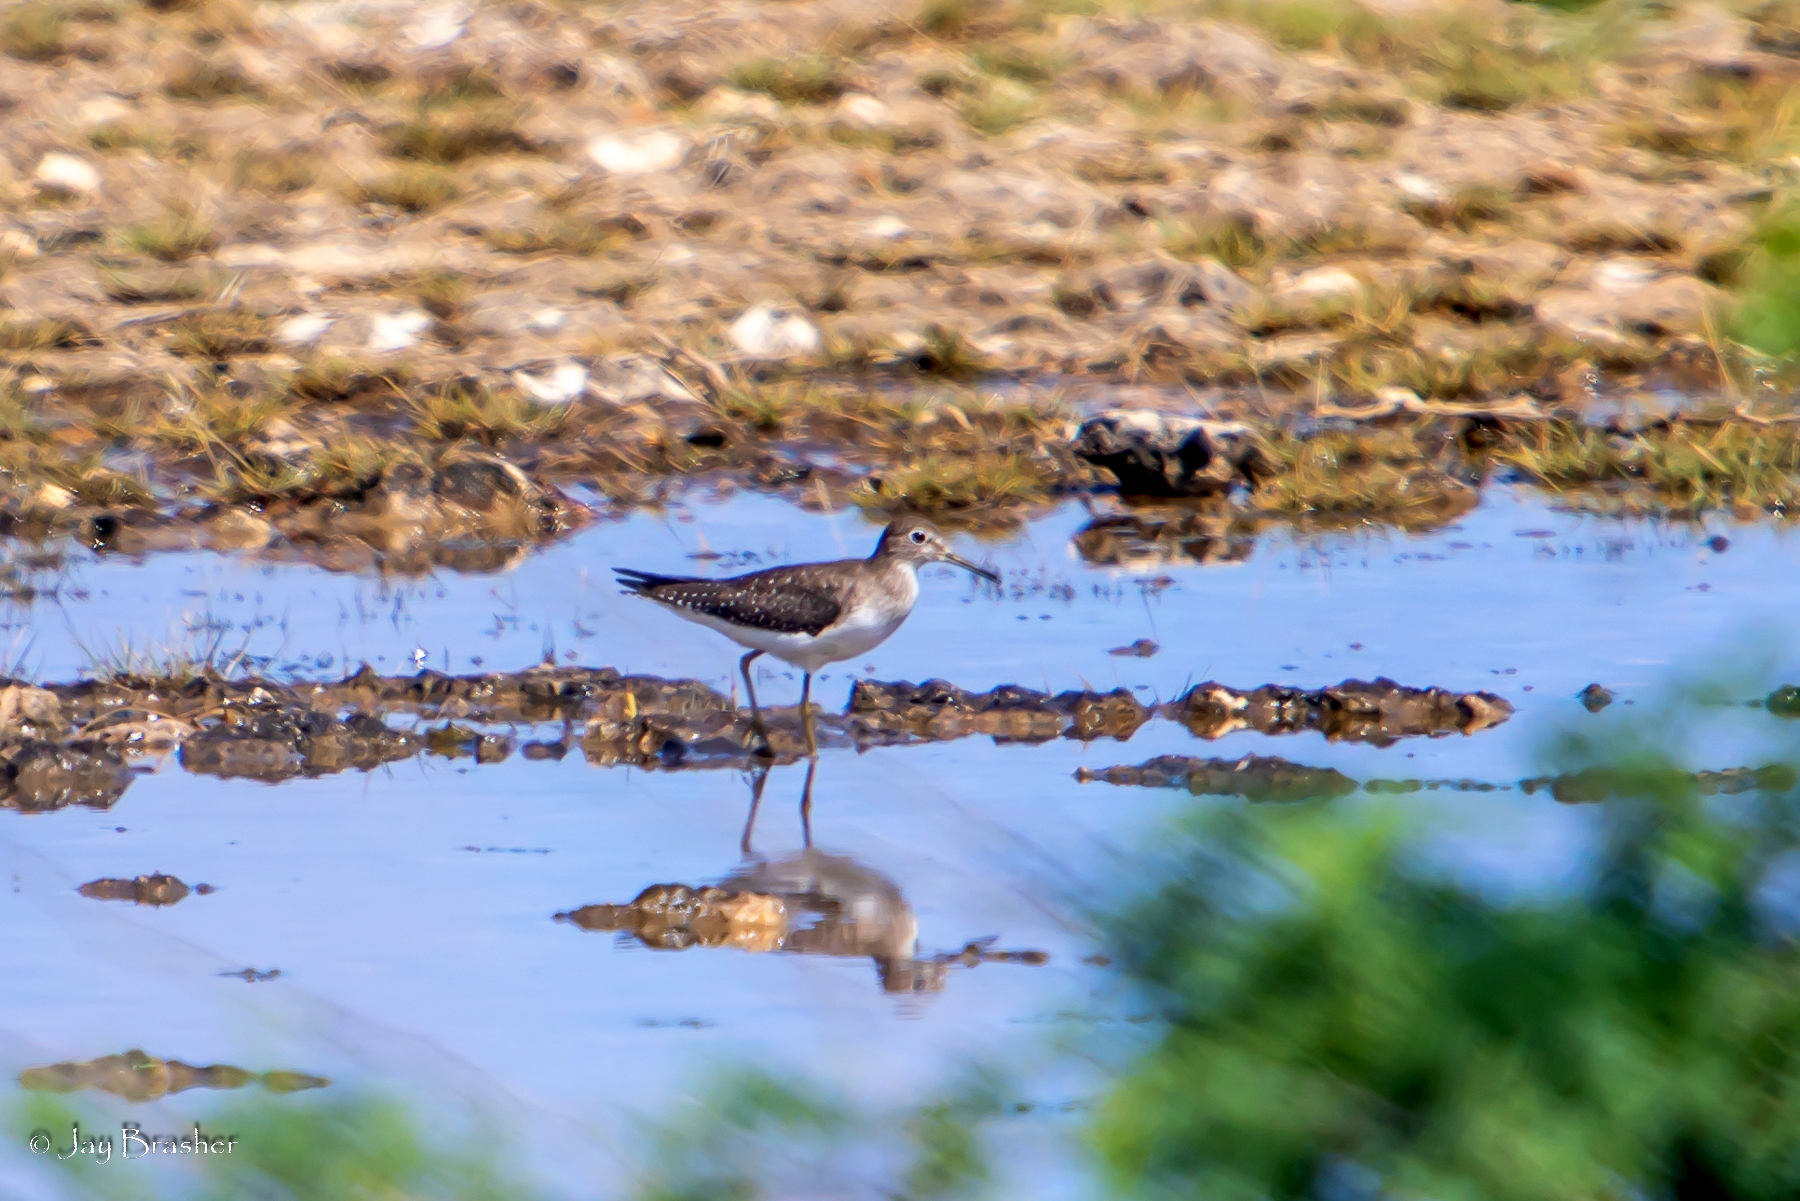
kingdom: Animalia
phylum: Chordata
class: Aves
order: Charadriiformes
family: Scolopacidae
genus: Tringa
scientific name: Tringa solitaria
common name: Solitary sandpiper
